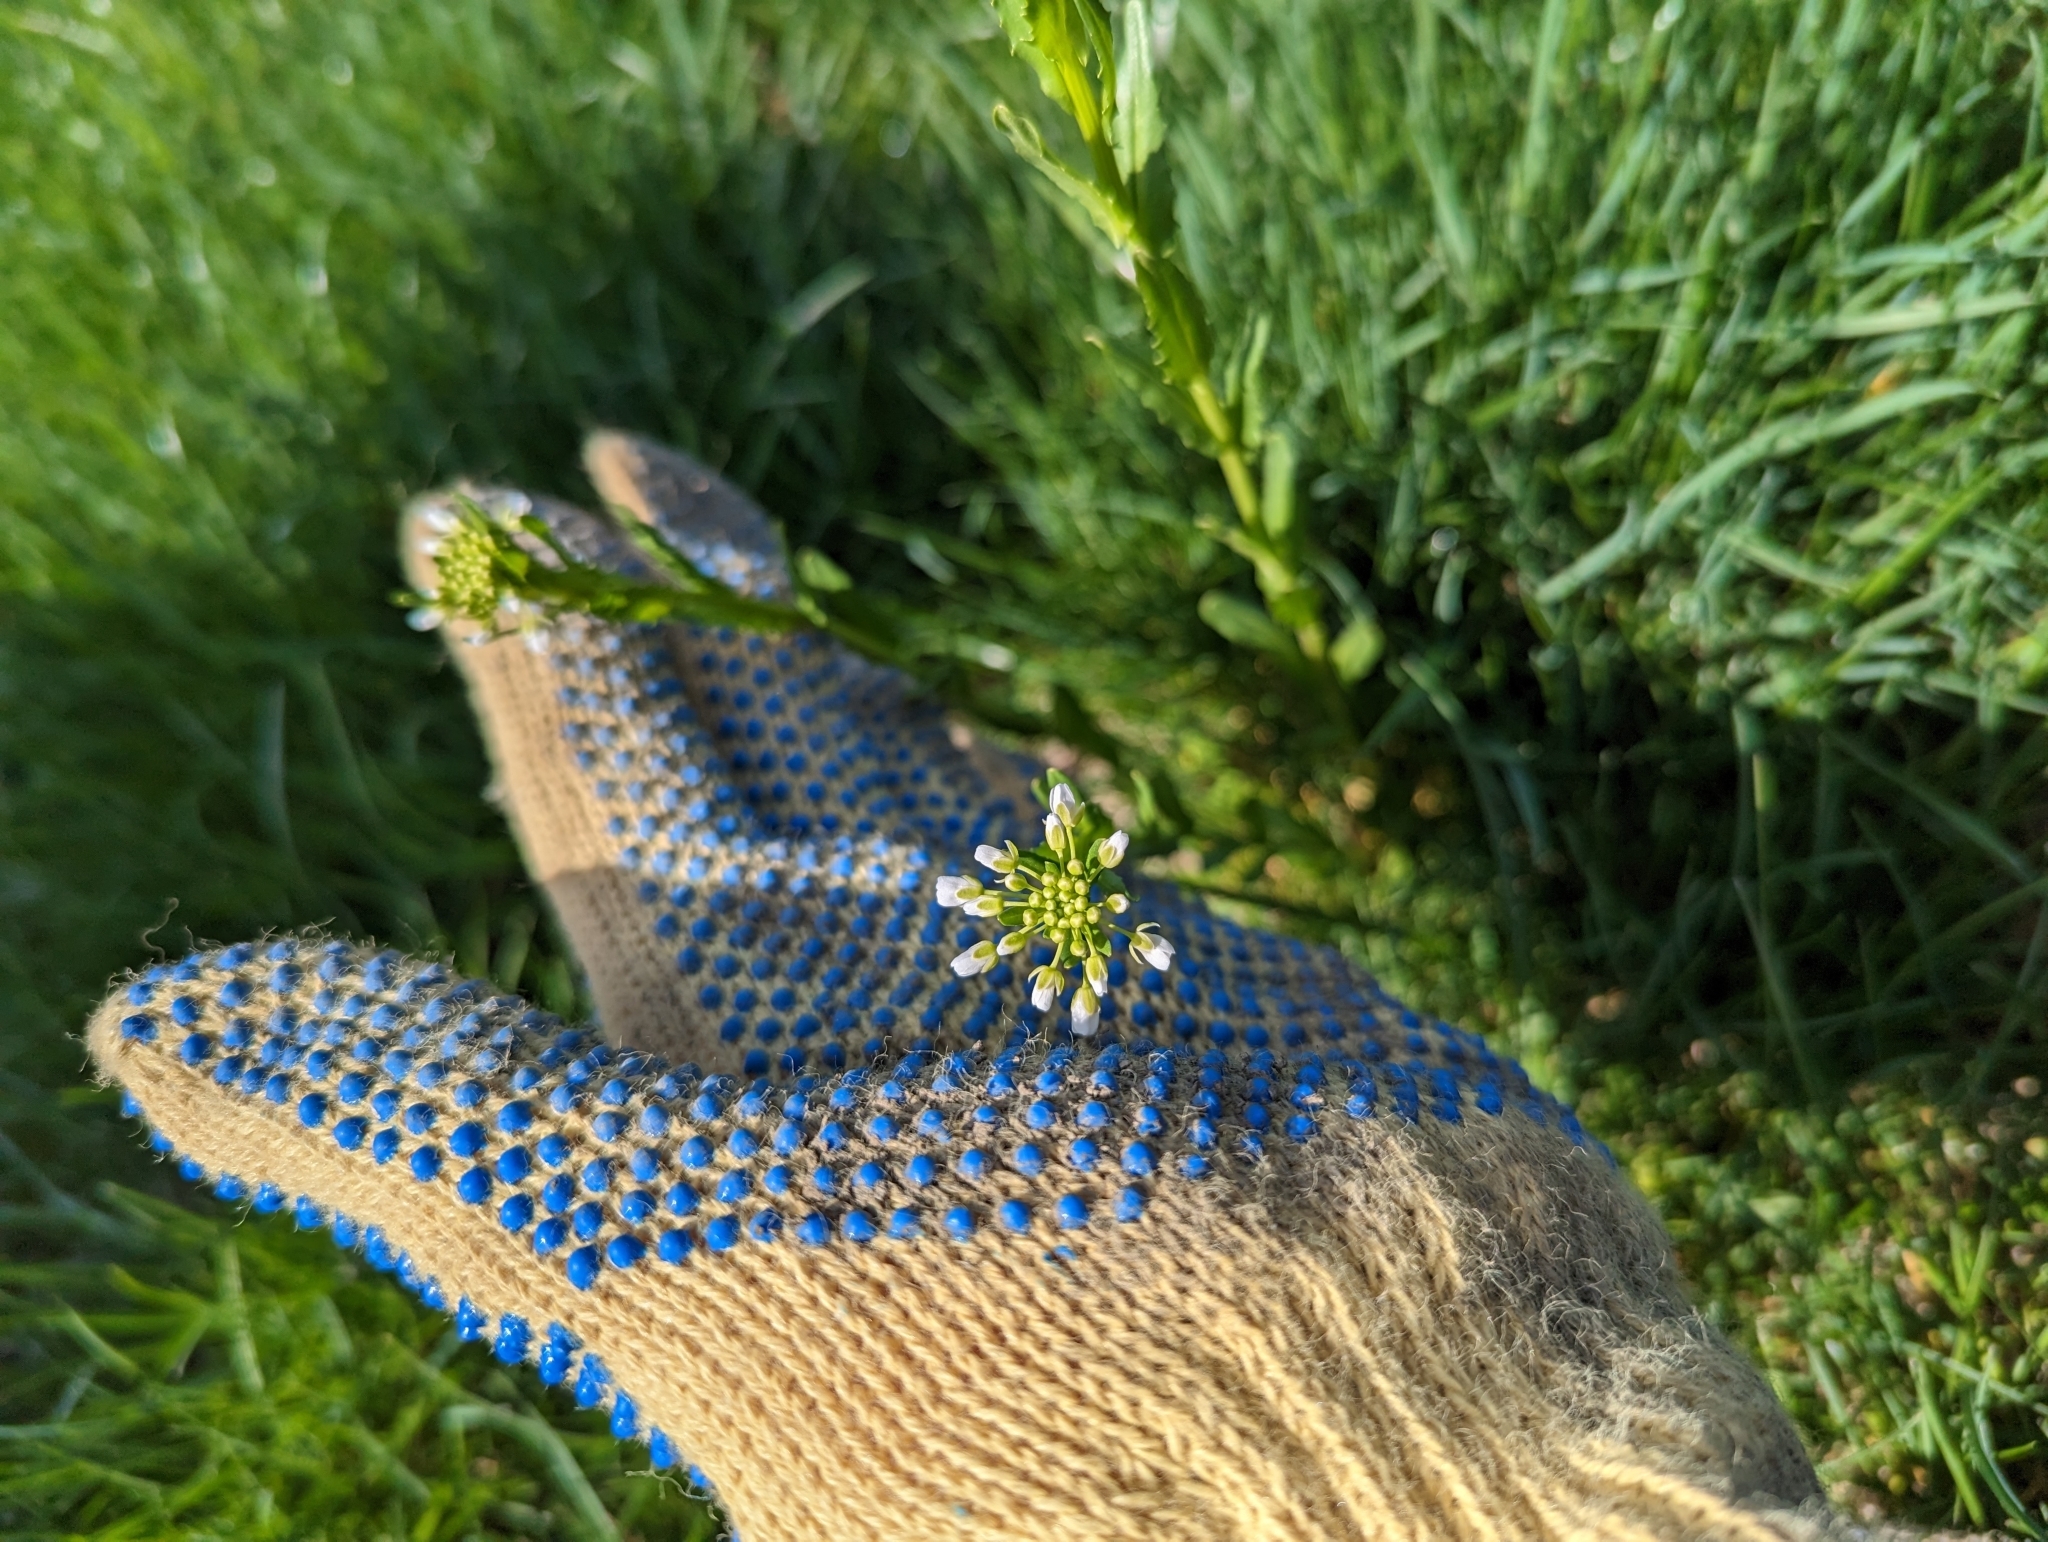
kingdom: Plantae
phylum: Tracheophyta
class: Magnoliopsida
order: Brassicales
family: Brassicaceae
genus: Thlaspi
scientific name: Thlaspi arvense
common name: Field pennycress
